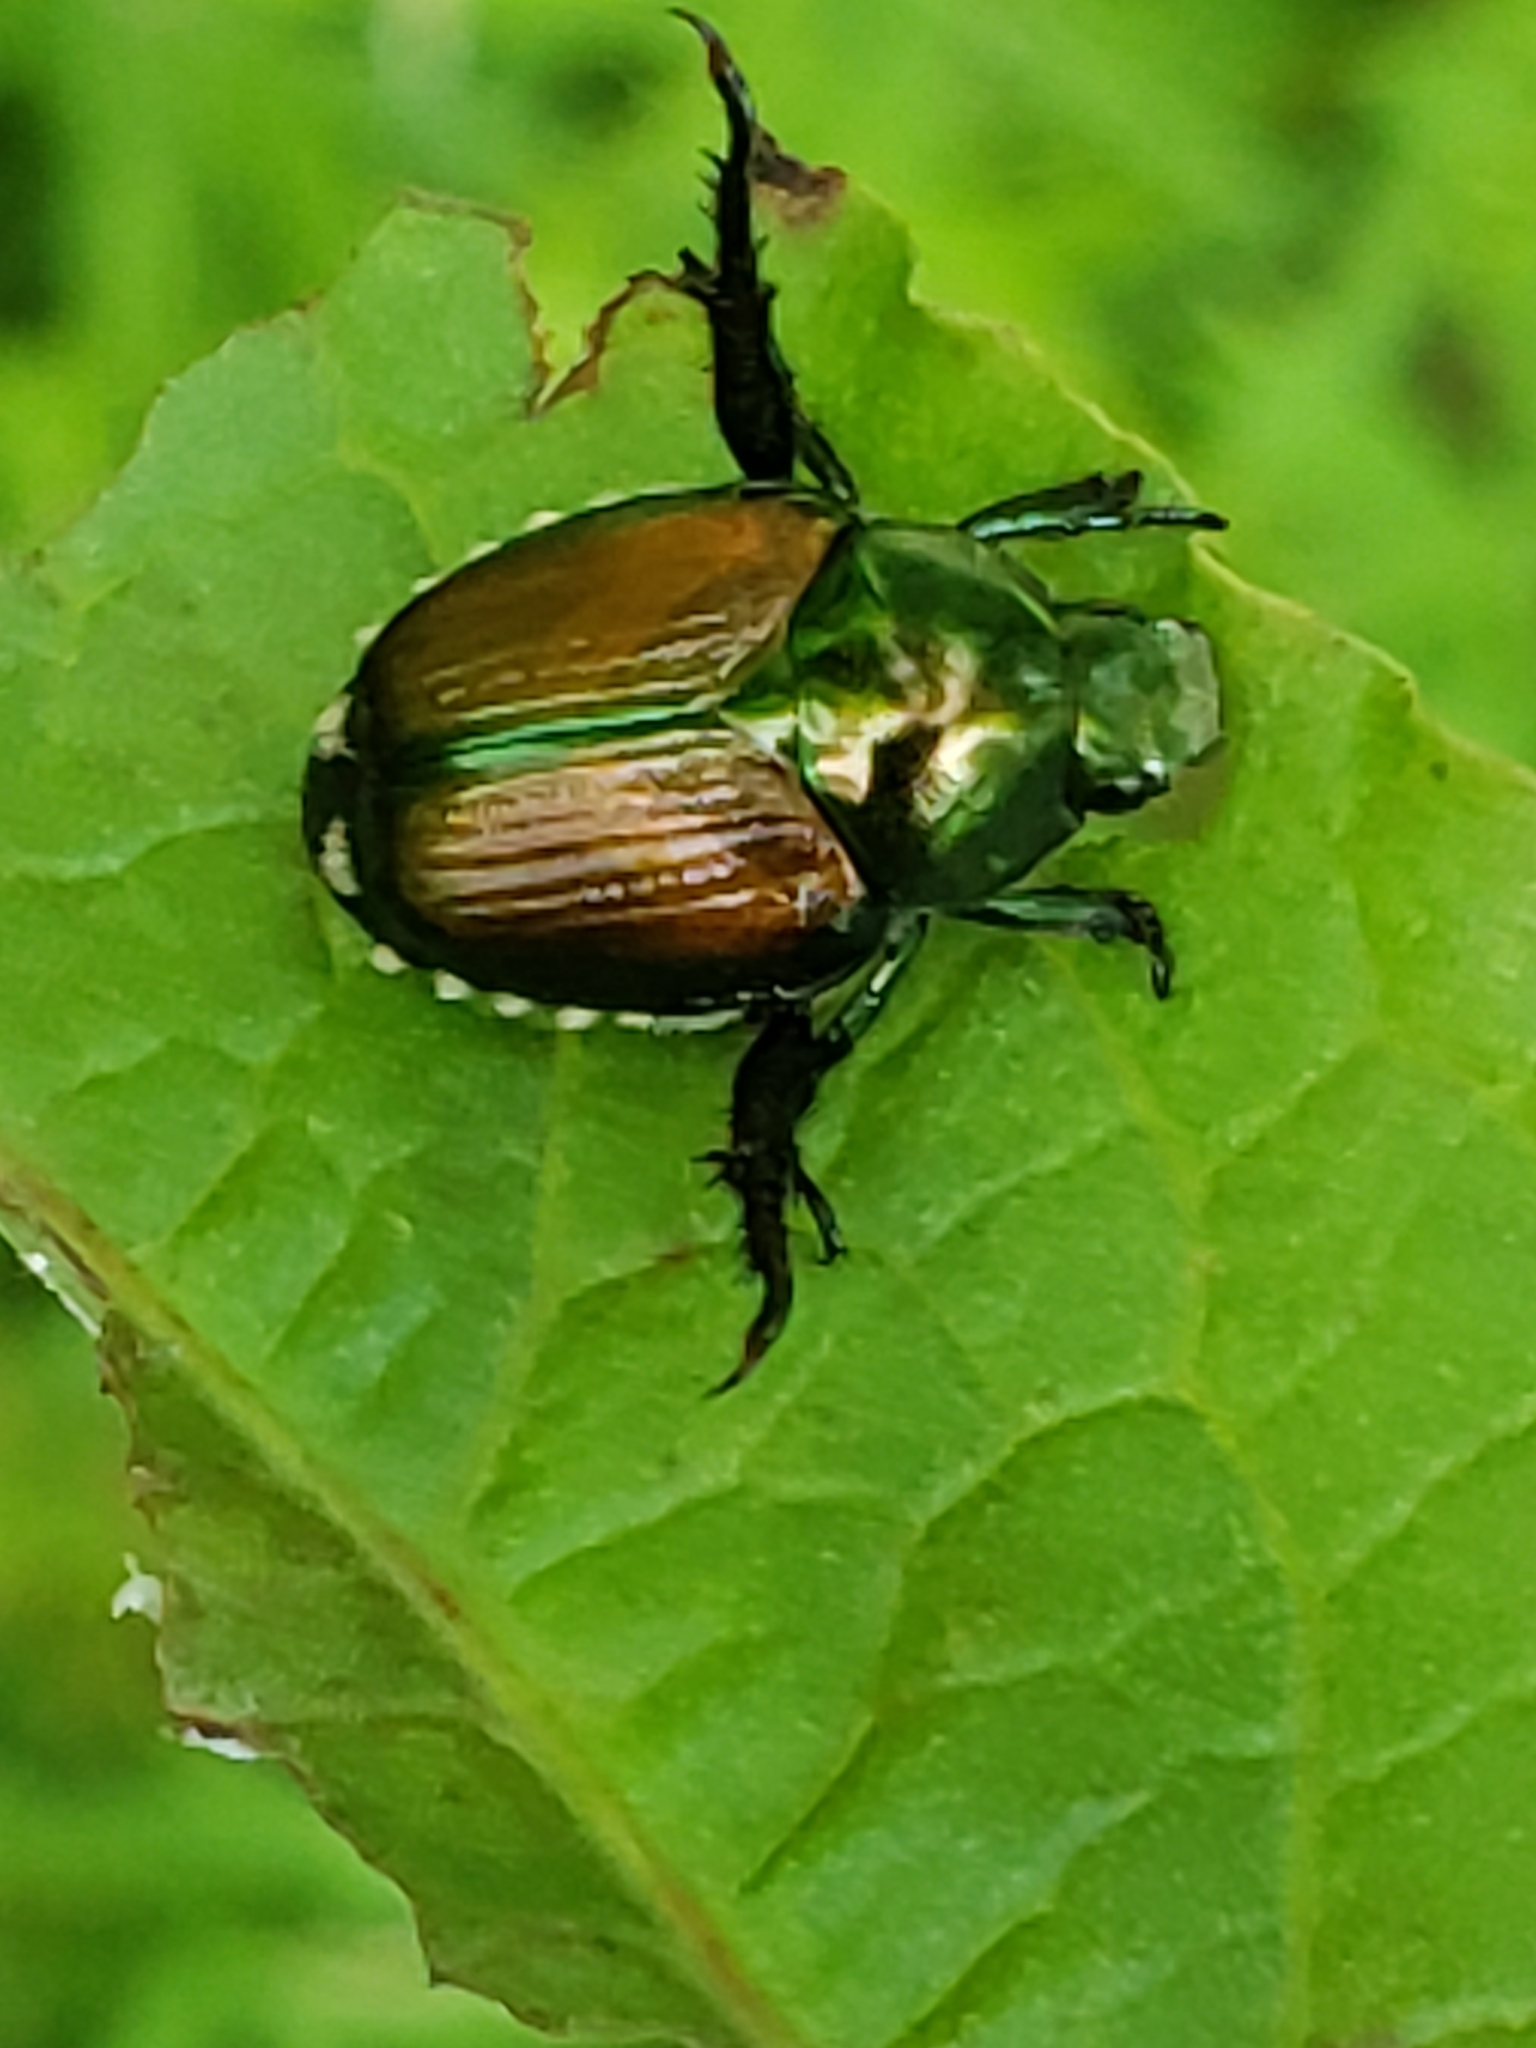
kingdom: Animalia
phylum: Arthropoda
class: Insecta
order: Coleoptera
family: Scarabaeidae
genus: Popillia
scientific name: Popillia japonica
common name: Japanese beetle
